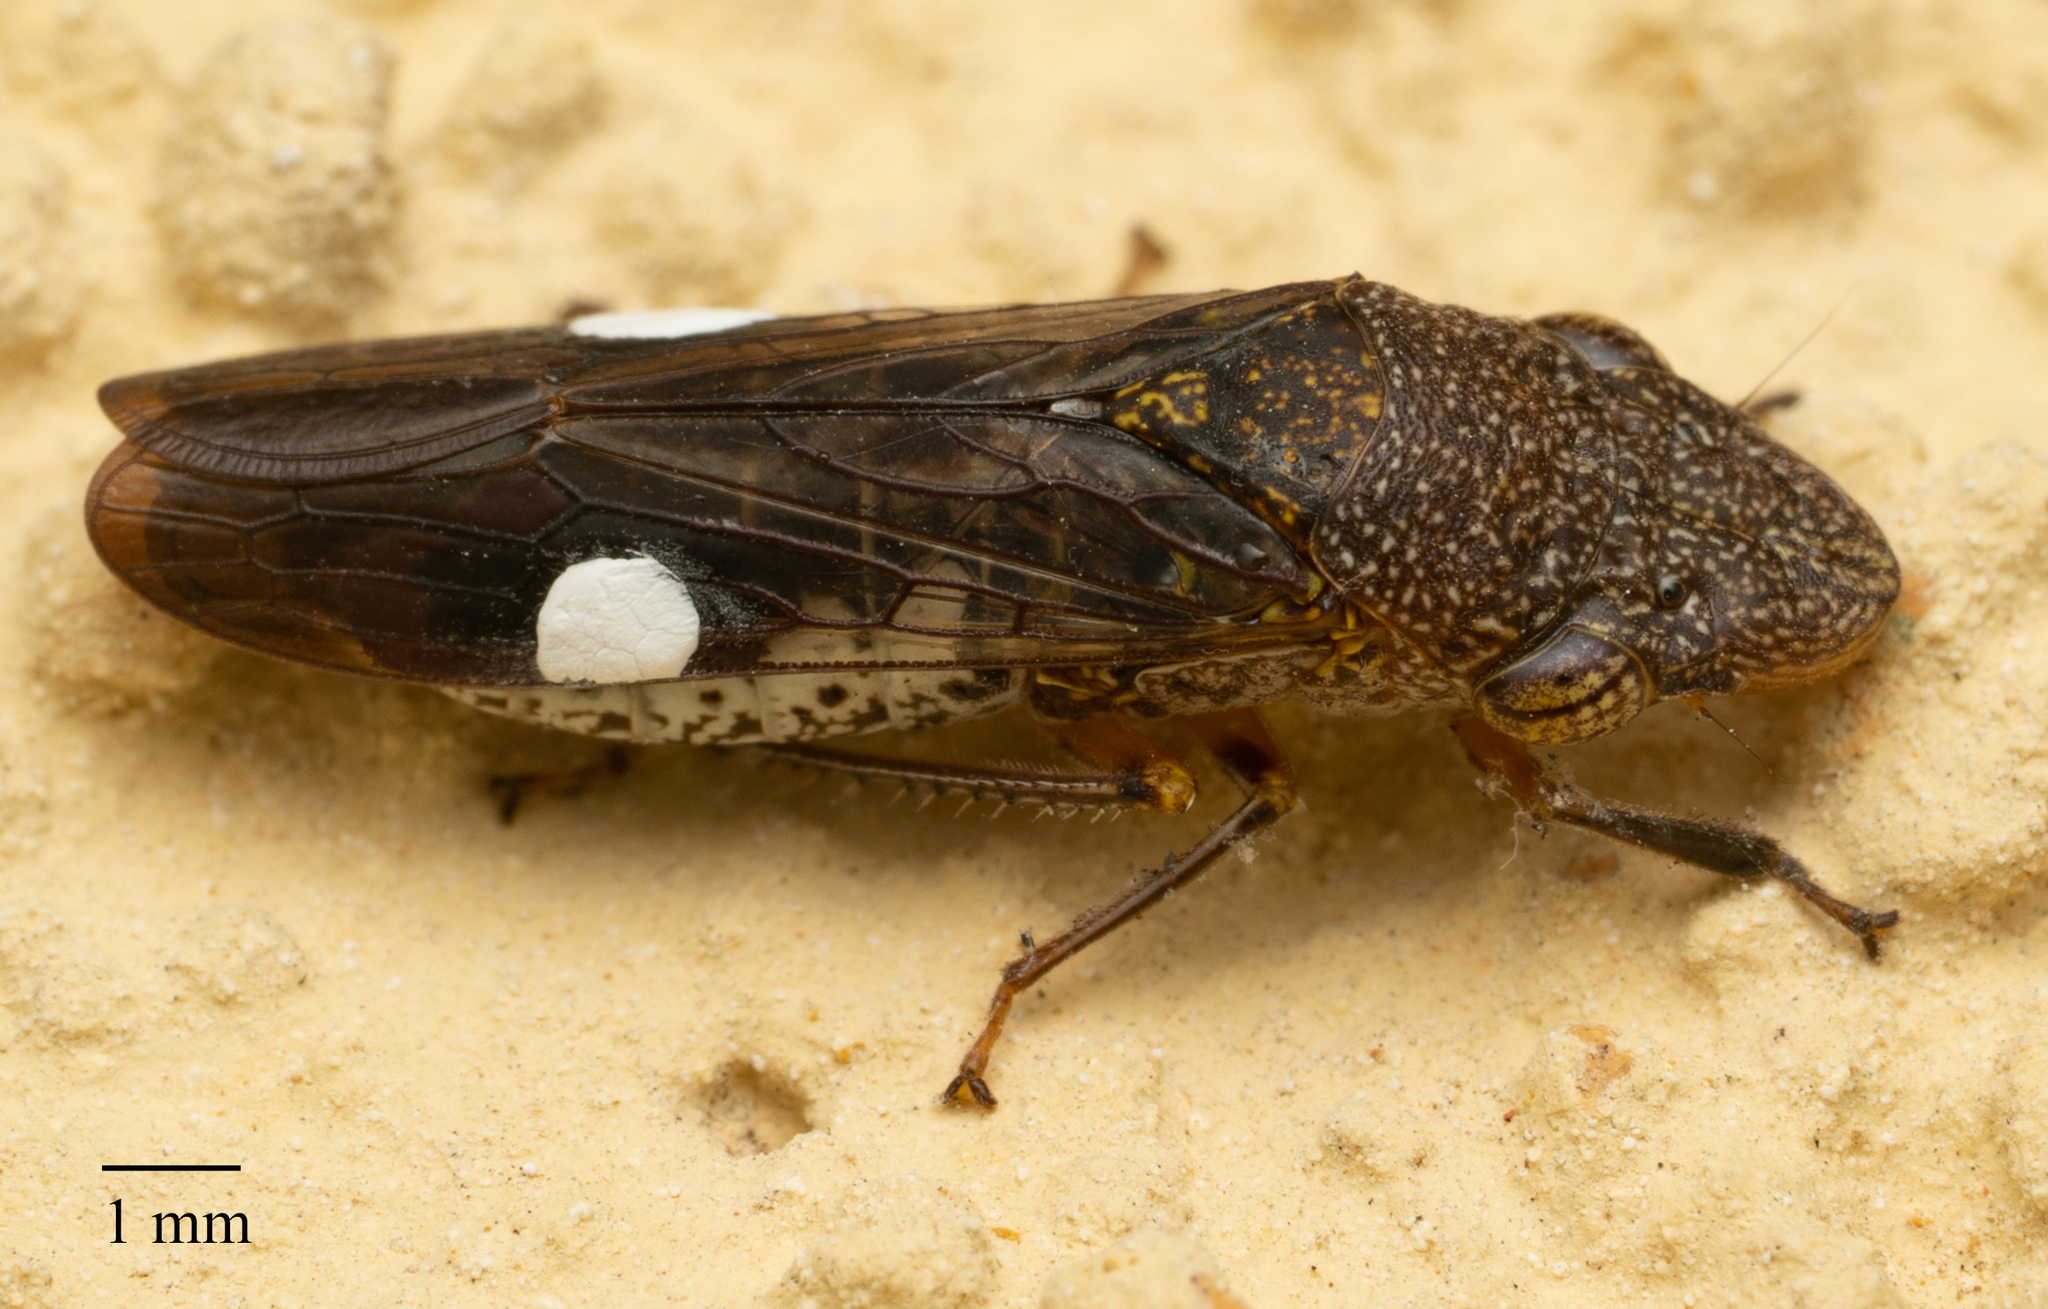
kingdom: Animalia
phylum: Arthropoda
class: Insecta
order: Hemiptera
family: Cicadellidae
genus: Homalodisca
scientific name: Homalodisca vitripennis
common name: Glassy-winged sharpshooter
